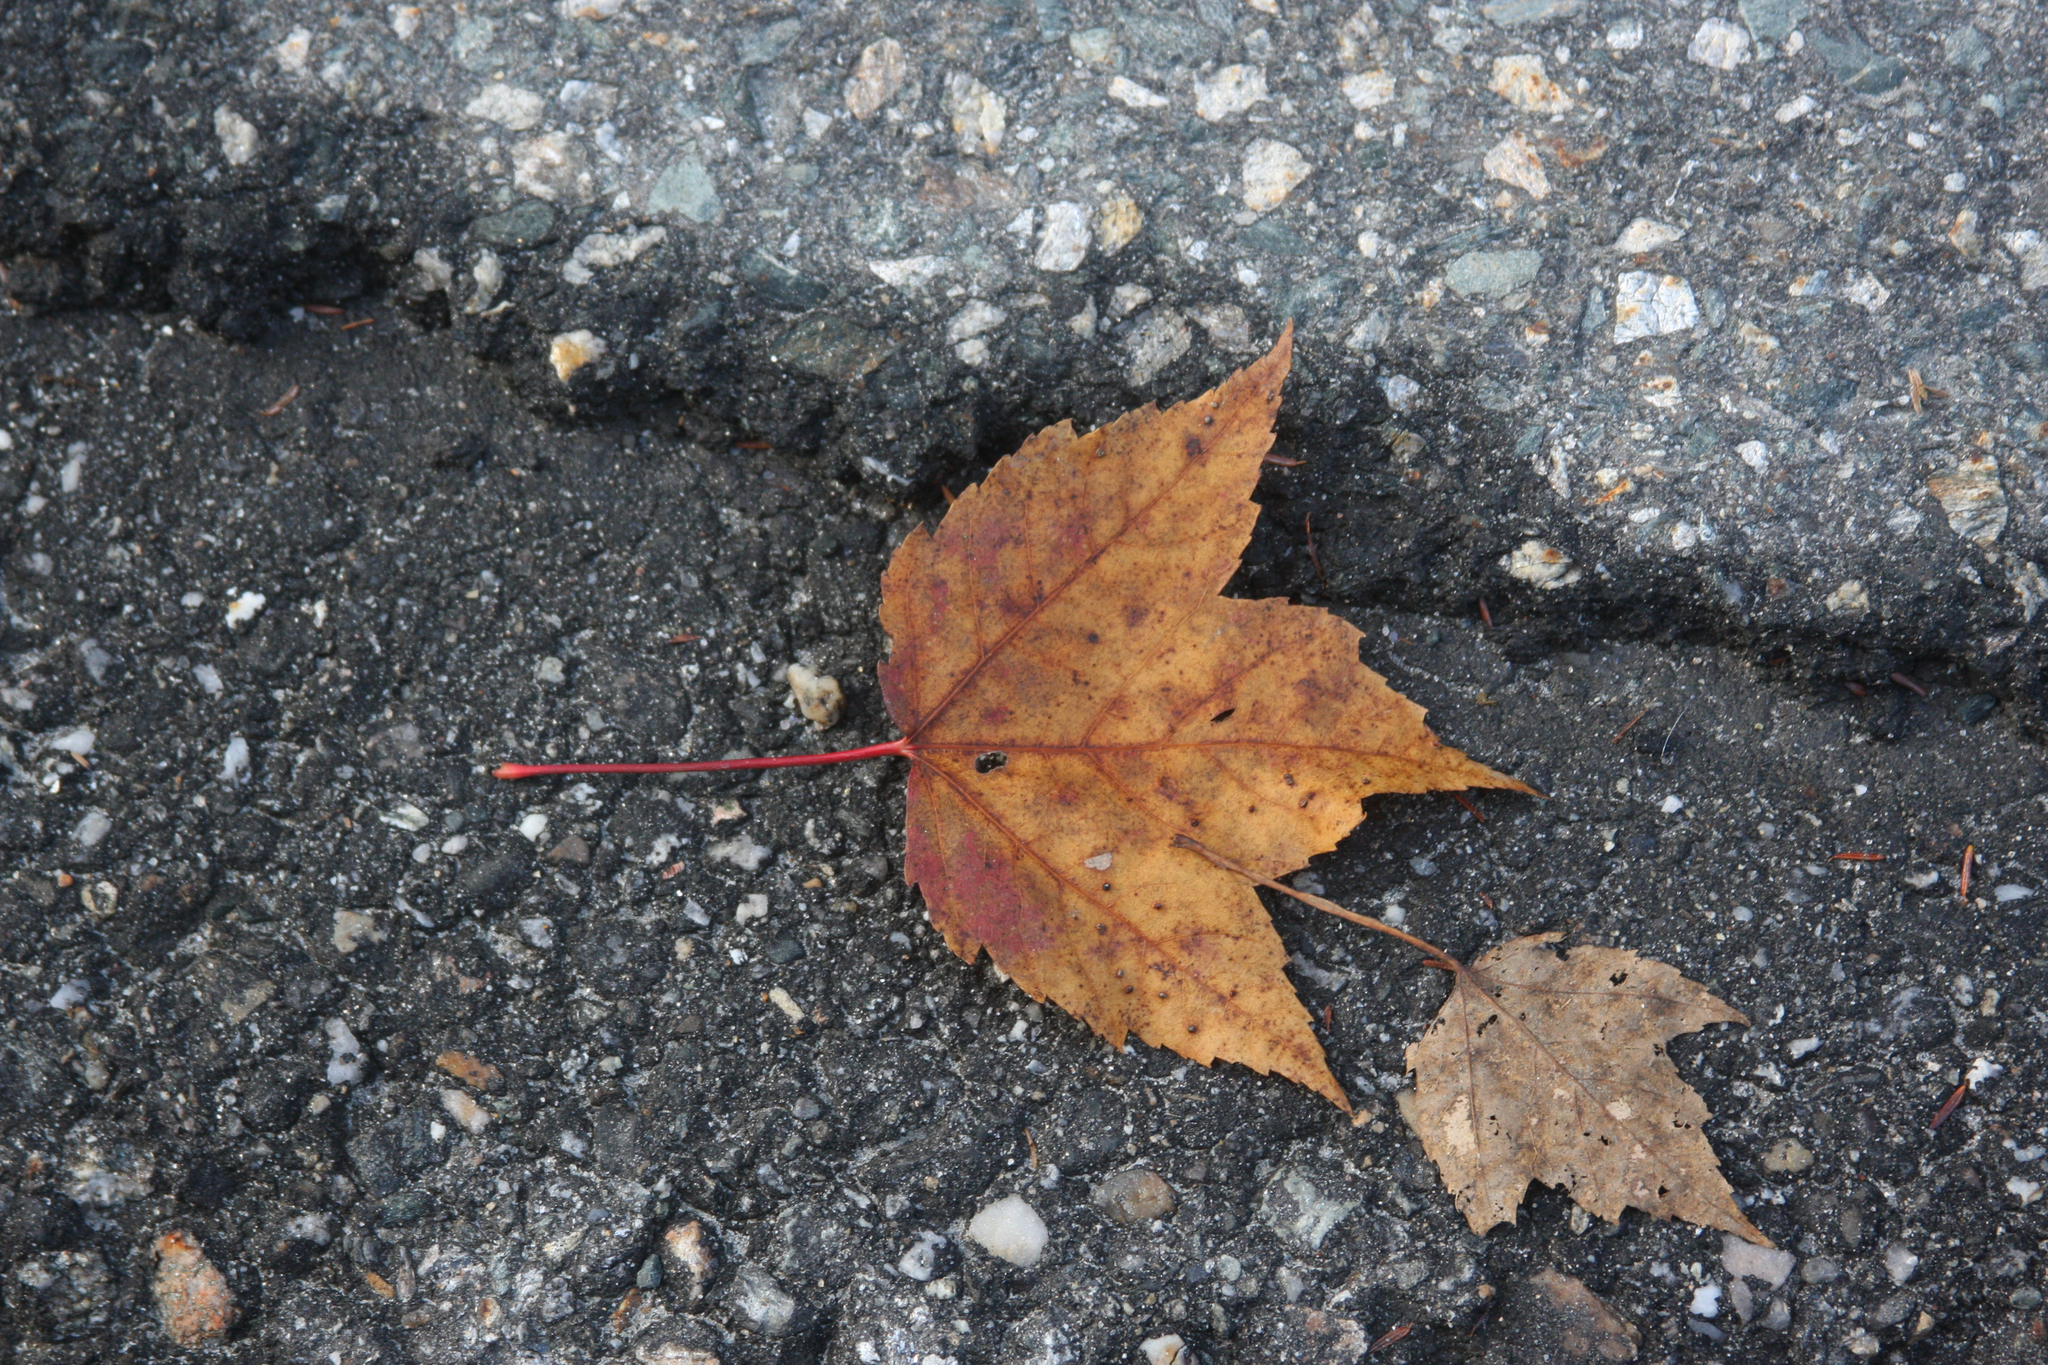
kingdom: Plantae
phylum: Tracheophyta
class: Magnoliopsida
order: Sapindales
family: Sapindaceae
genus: Acer
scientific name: Acer rubrum
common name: Red maple
